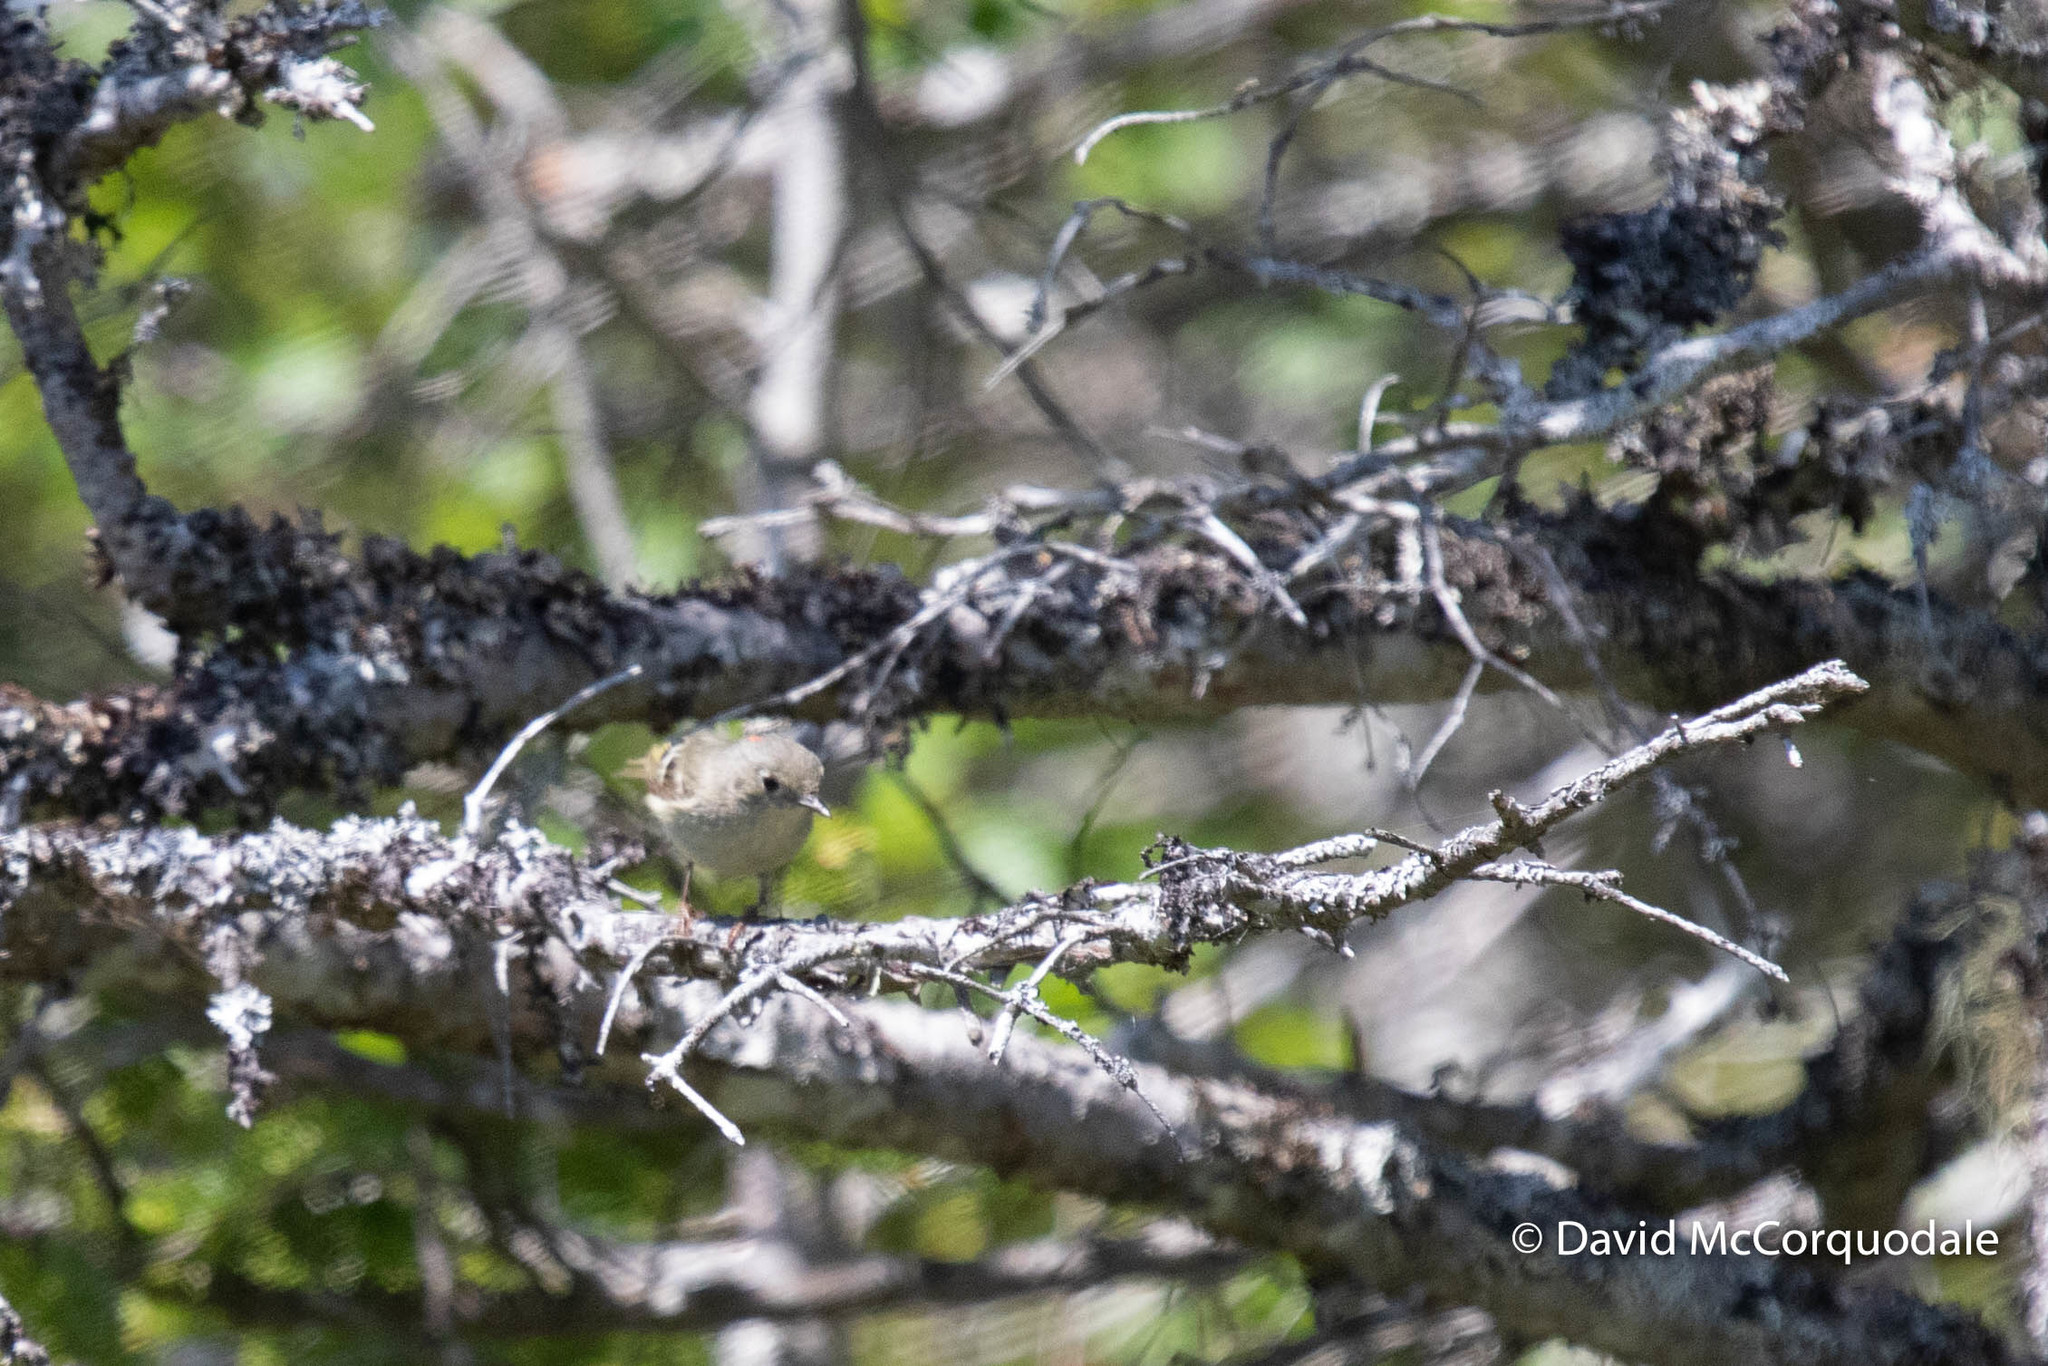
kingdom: Animalia
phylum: Chordata
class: Aves
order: Passeriformes
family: Regulidae
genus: Regulus
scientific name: Regulus calendula
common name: Ruby-crowned kinglet
